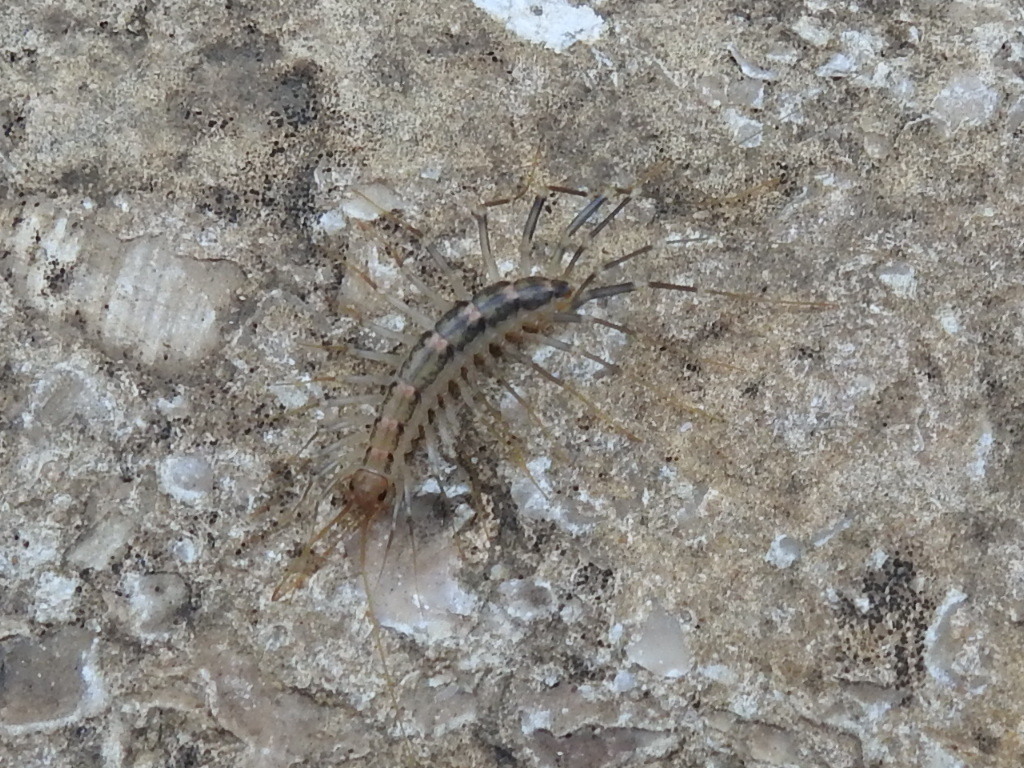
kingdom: Animalia
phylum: Arthropoda
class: Chilopoda
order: Scutigeromorpha
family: Scutigeridae
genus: Scutigera
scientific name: Scutigera coleoptrata
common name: House centipede
